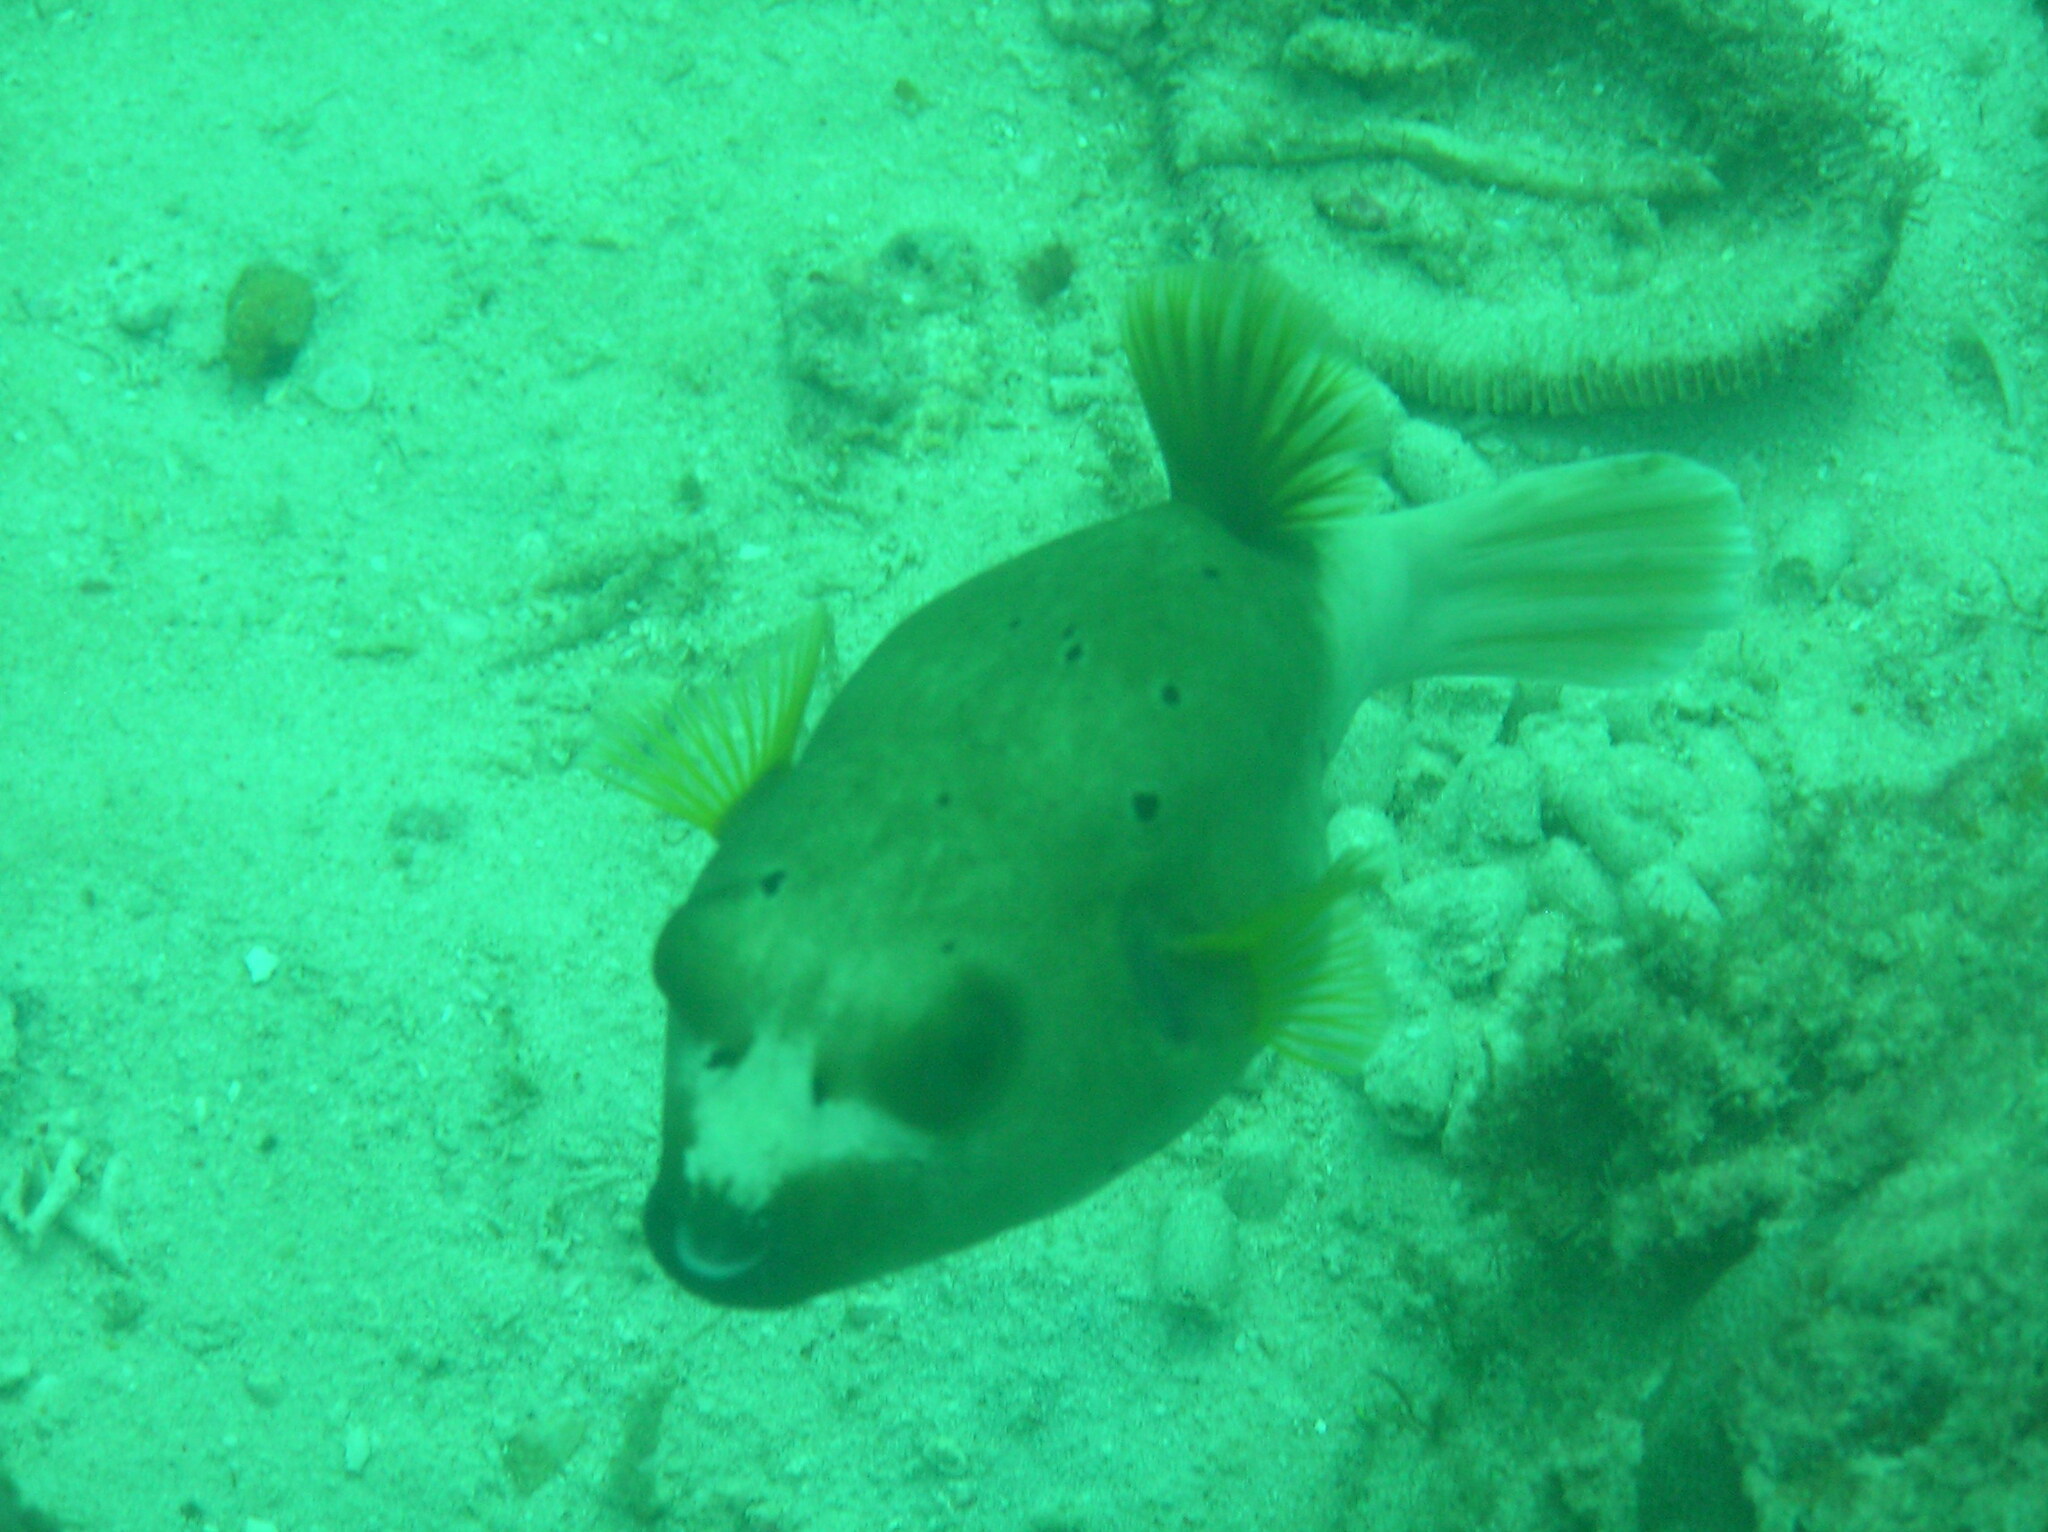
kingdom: Animalia
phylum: Chordata
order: Tetraodontiformes
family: Tetraodontidae
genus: Arothron
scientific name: Arothron nigropunctatus
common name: Black spotted blow fish
